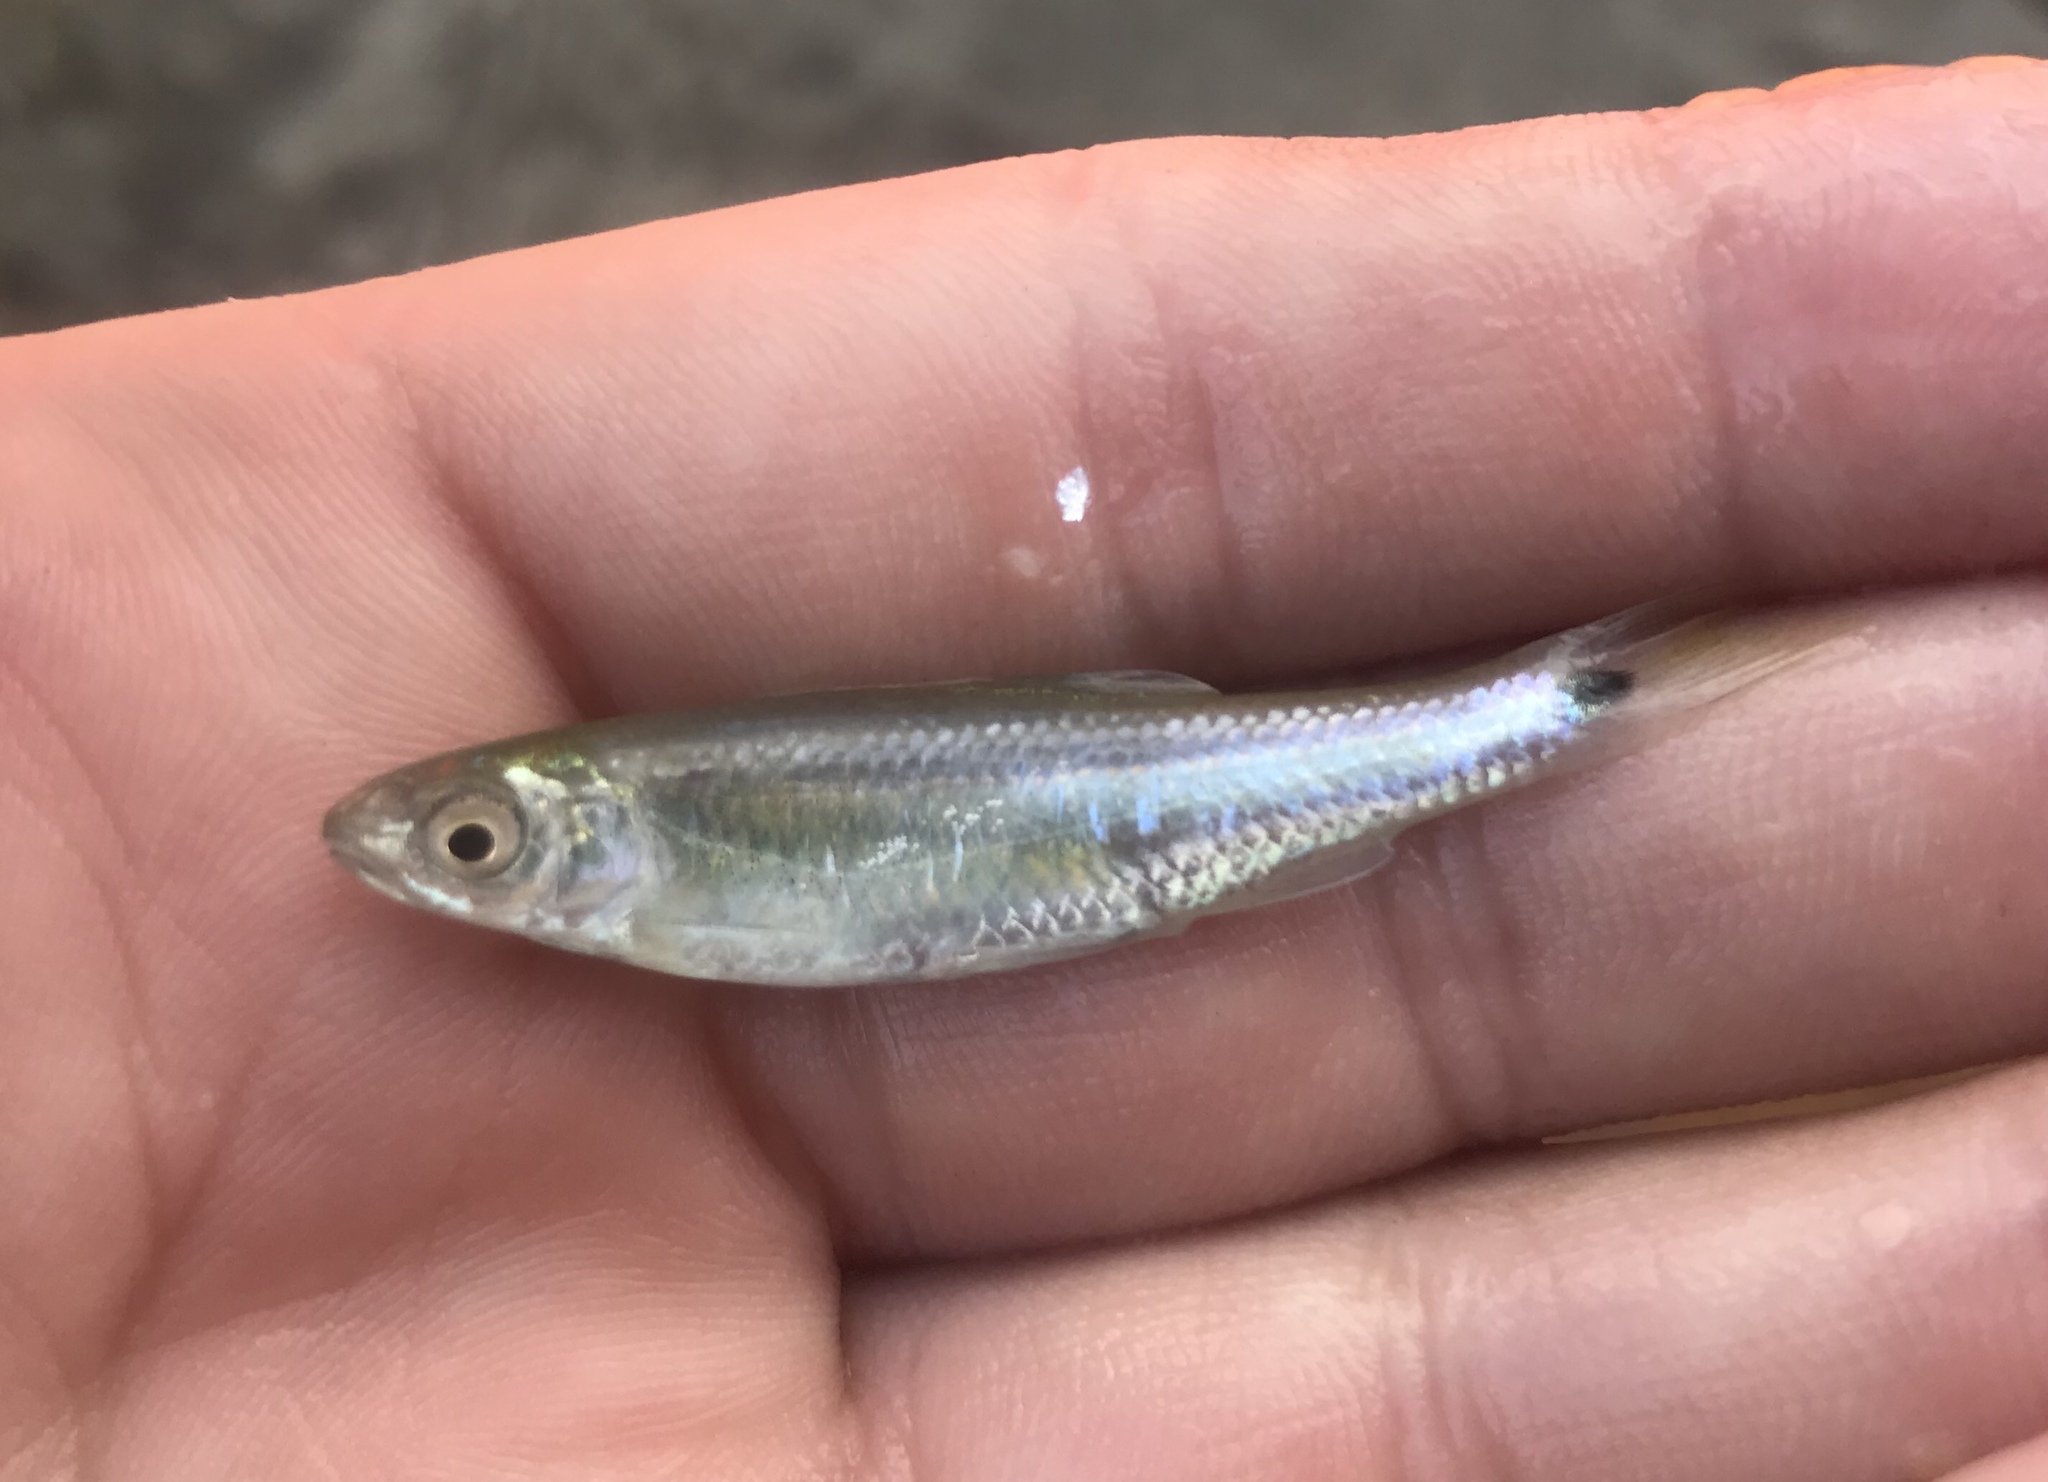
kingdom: Animalia
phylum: Chordata
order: Cypriniformes
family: Cyprinidae
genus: Cyprinella
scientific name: Cyprinella venusta
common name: Blacktail shiner
